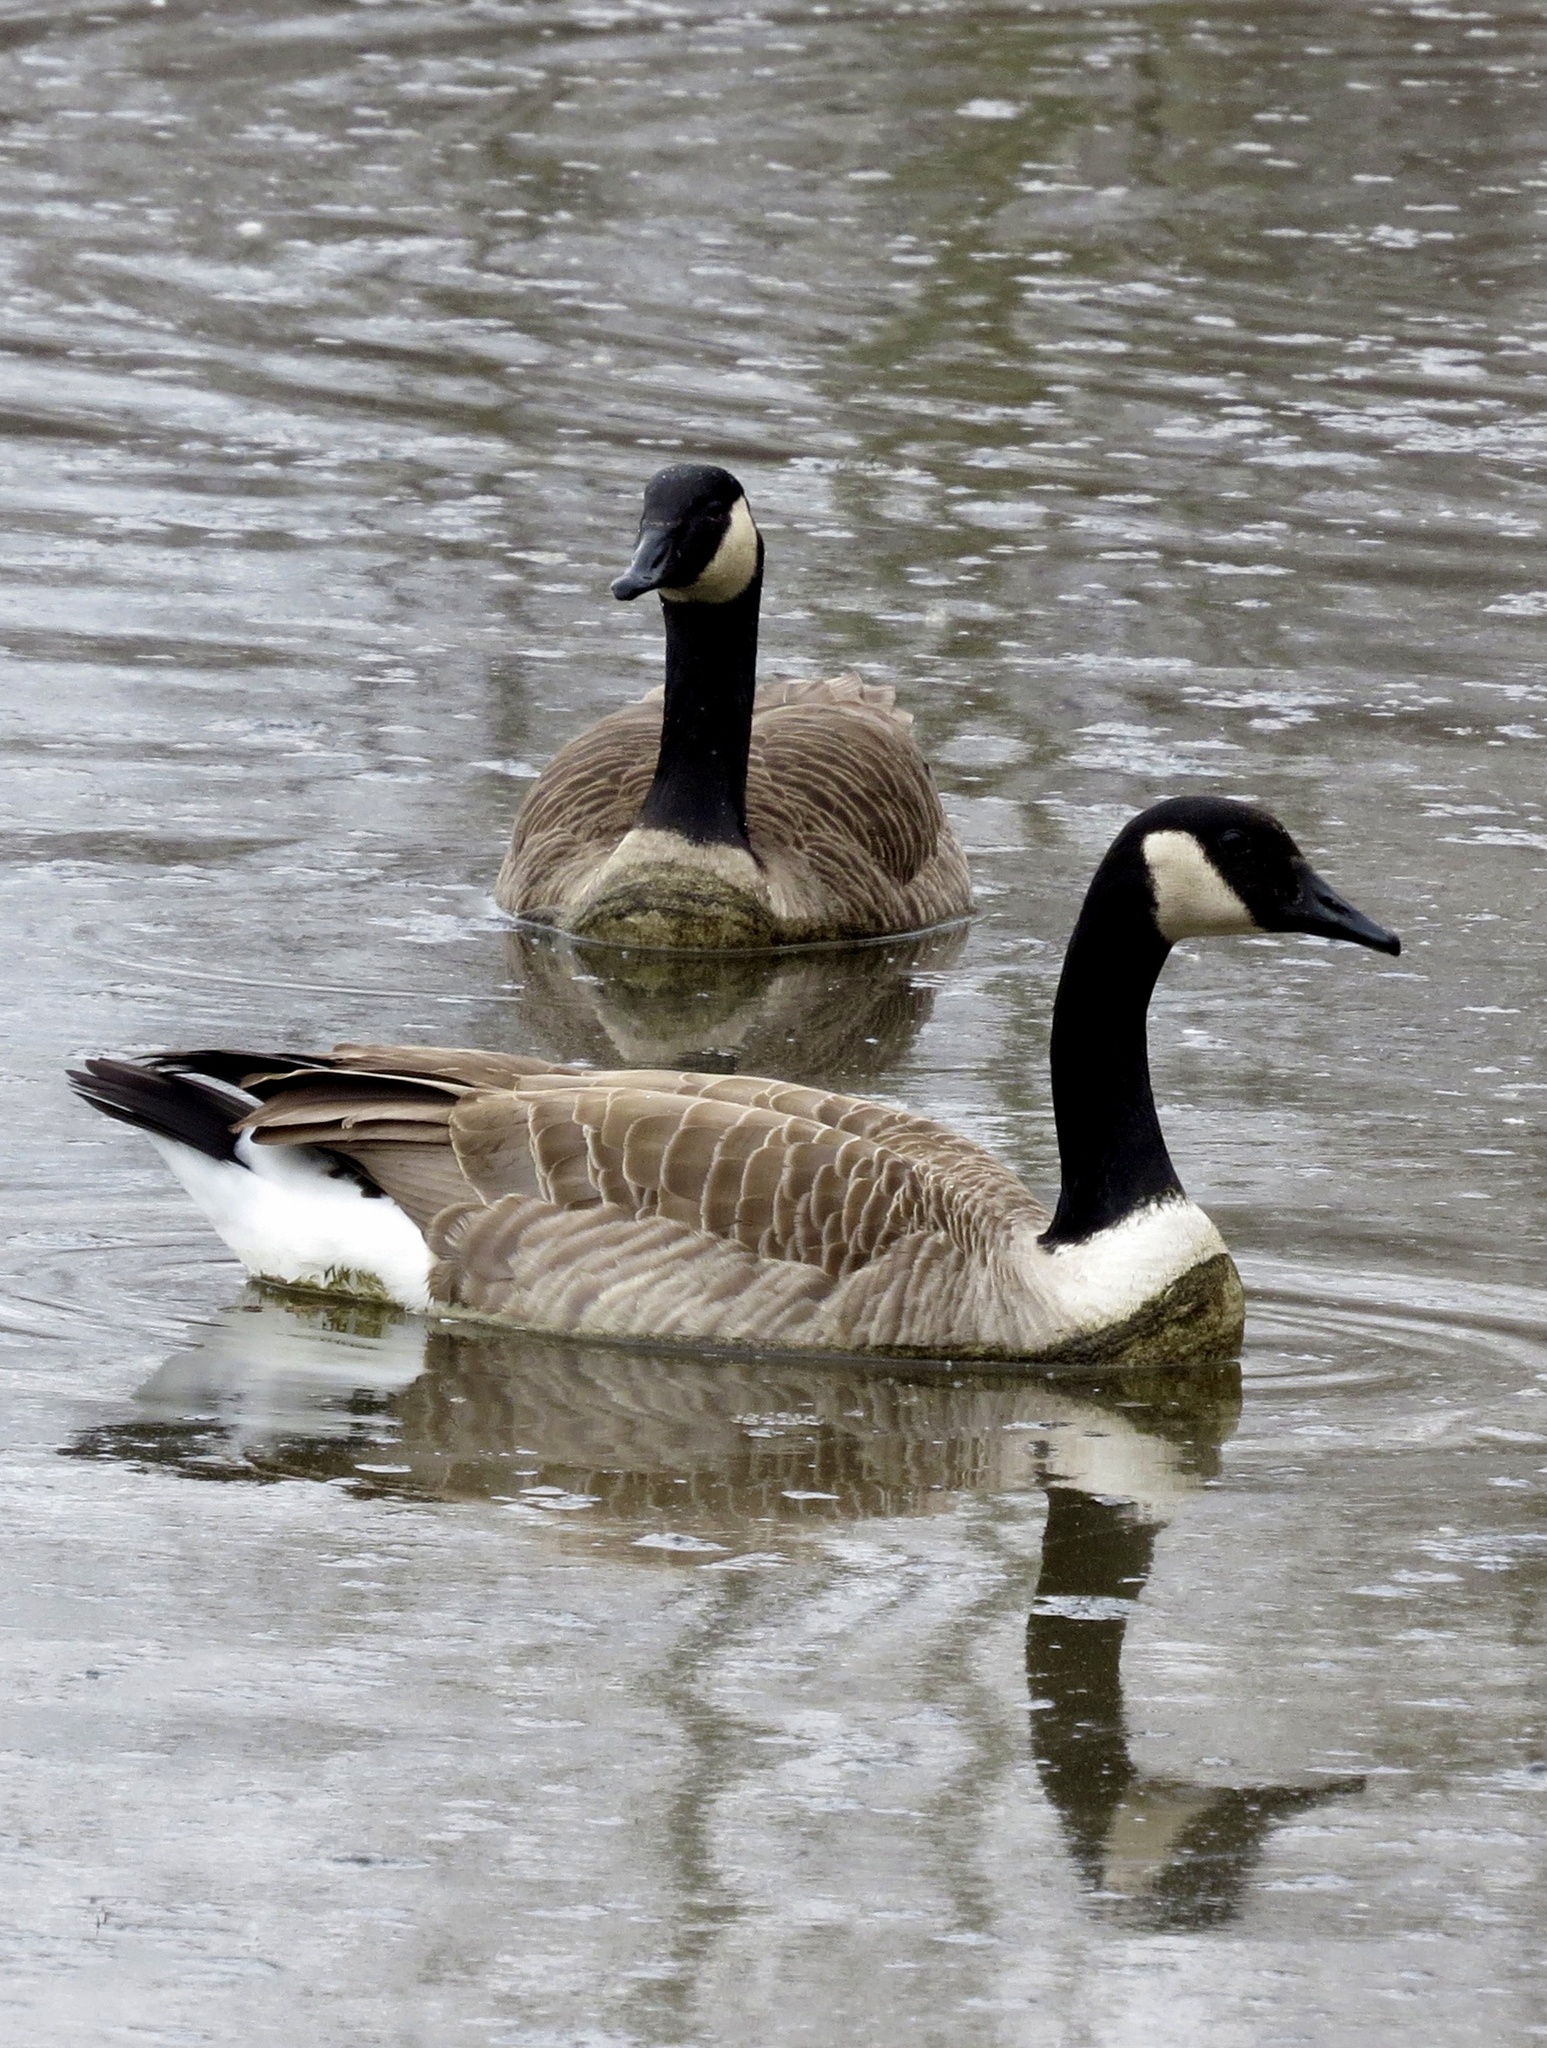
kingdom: Animalia
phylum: Chordata
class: Aves
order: Anseriformes
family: Anatidae
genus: Branta
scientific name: Branta canadensis
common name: Canada goose
